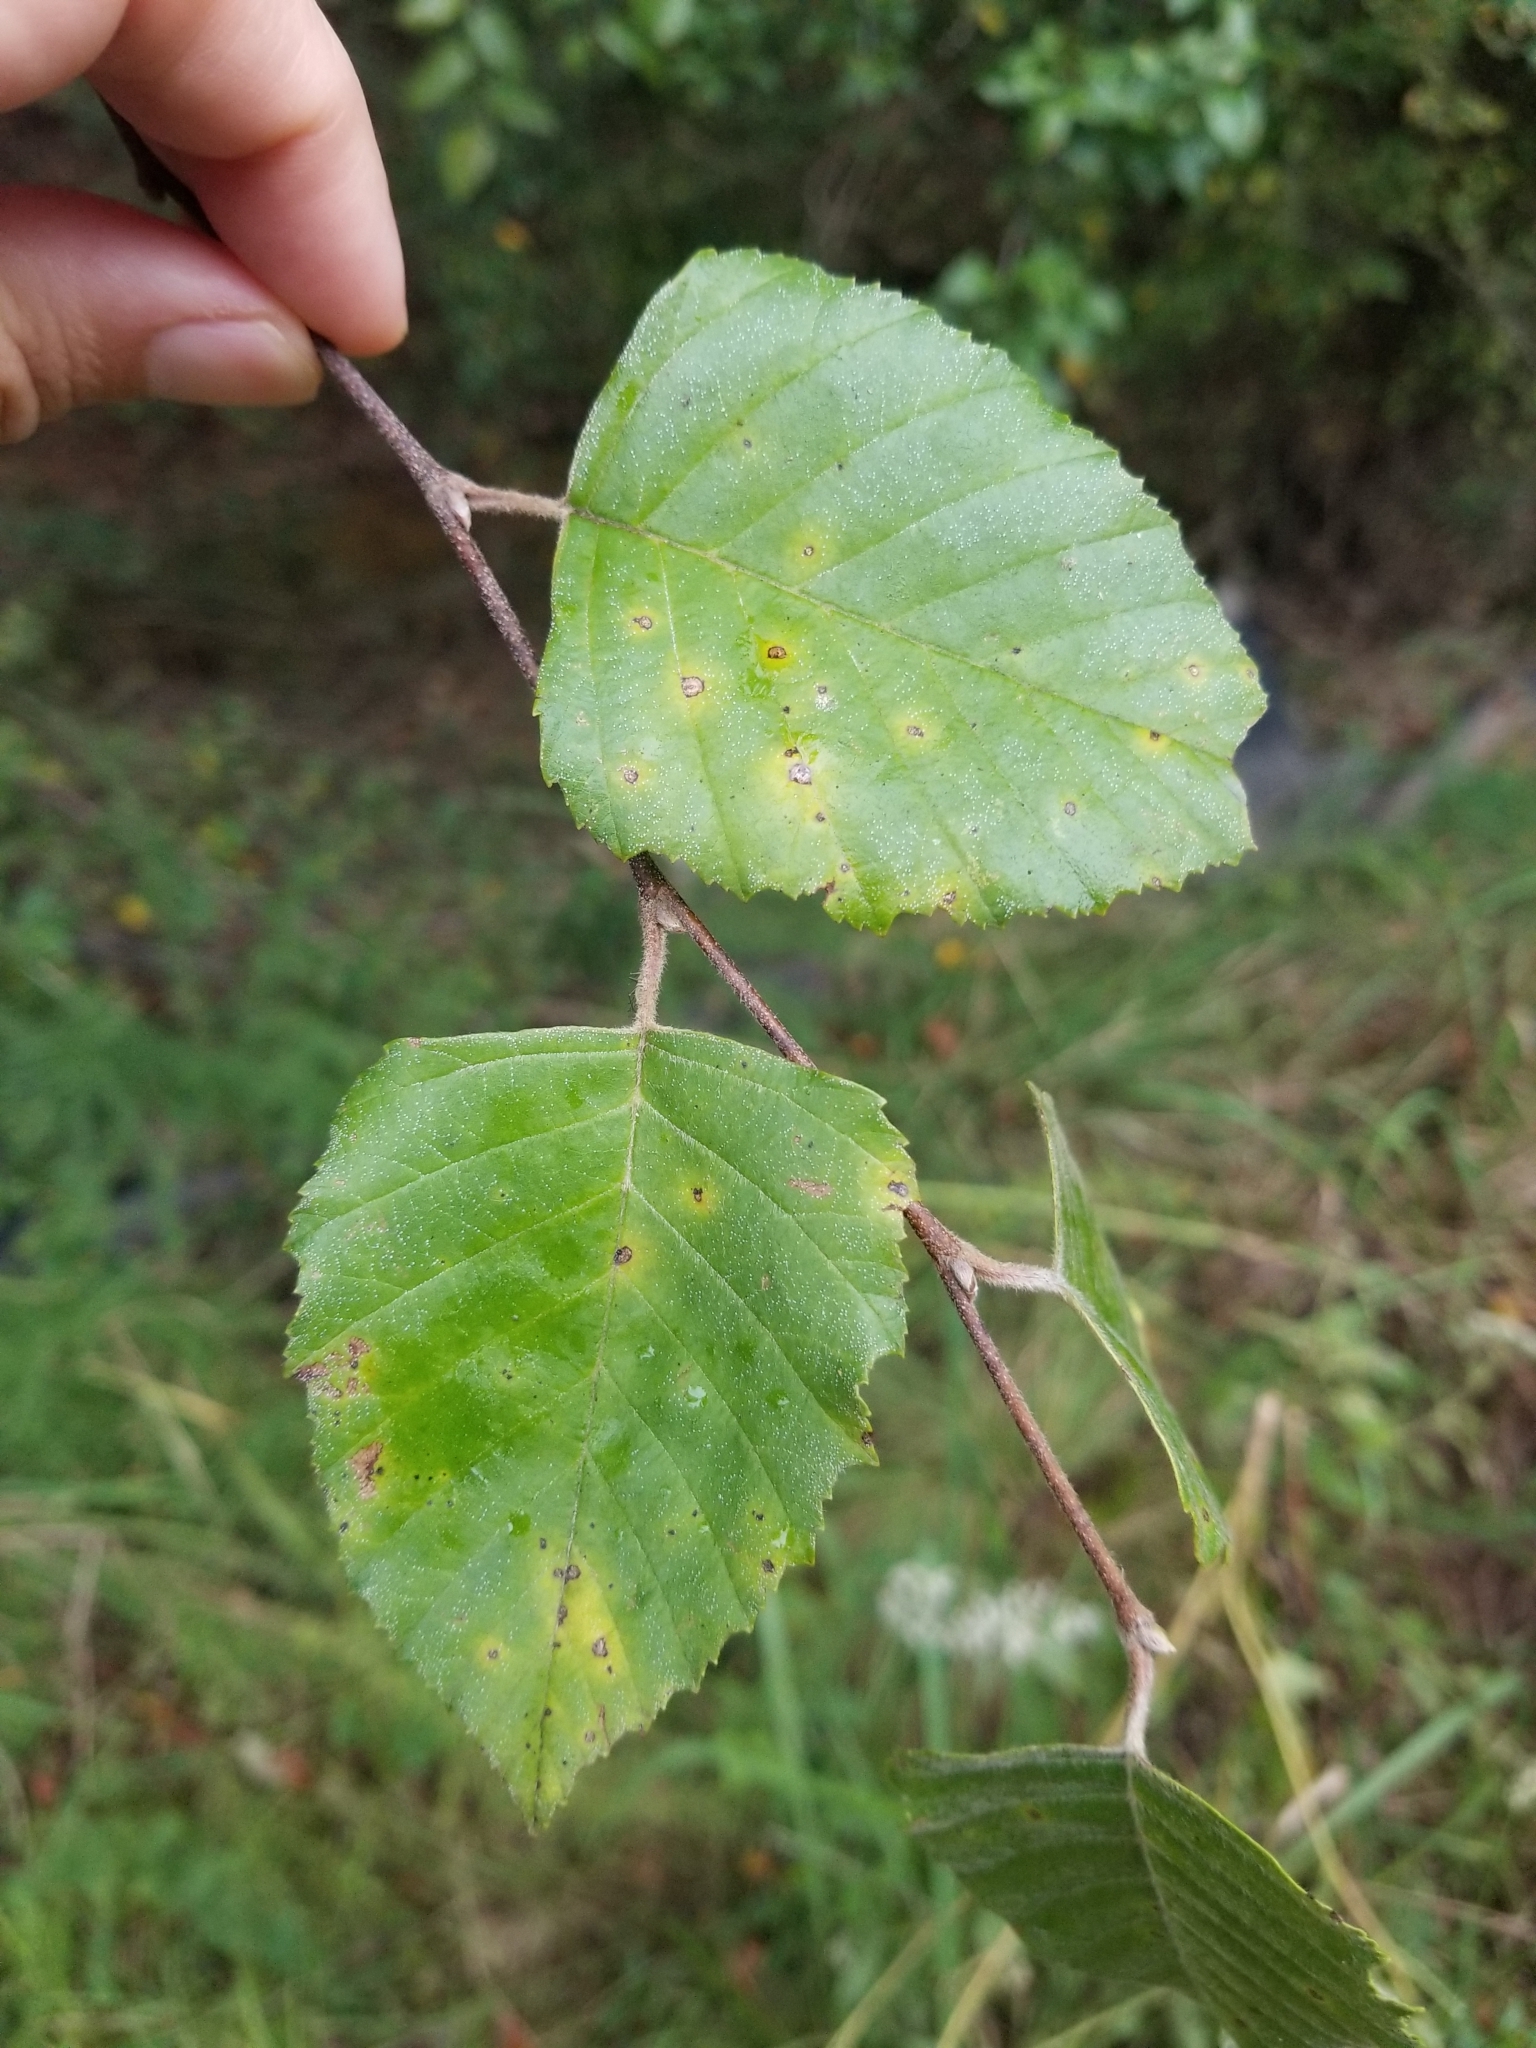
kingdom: Plantae
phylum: Tracheophyta
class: Magnoliopsida
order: Fagales
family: Betulaceae
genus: Betula
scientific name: Betula nigra
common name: Black birch
